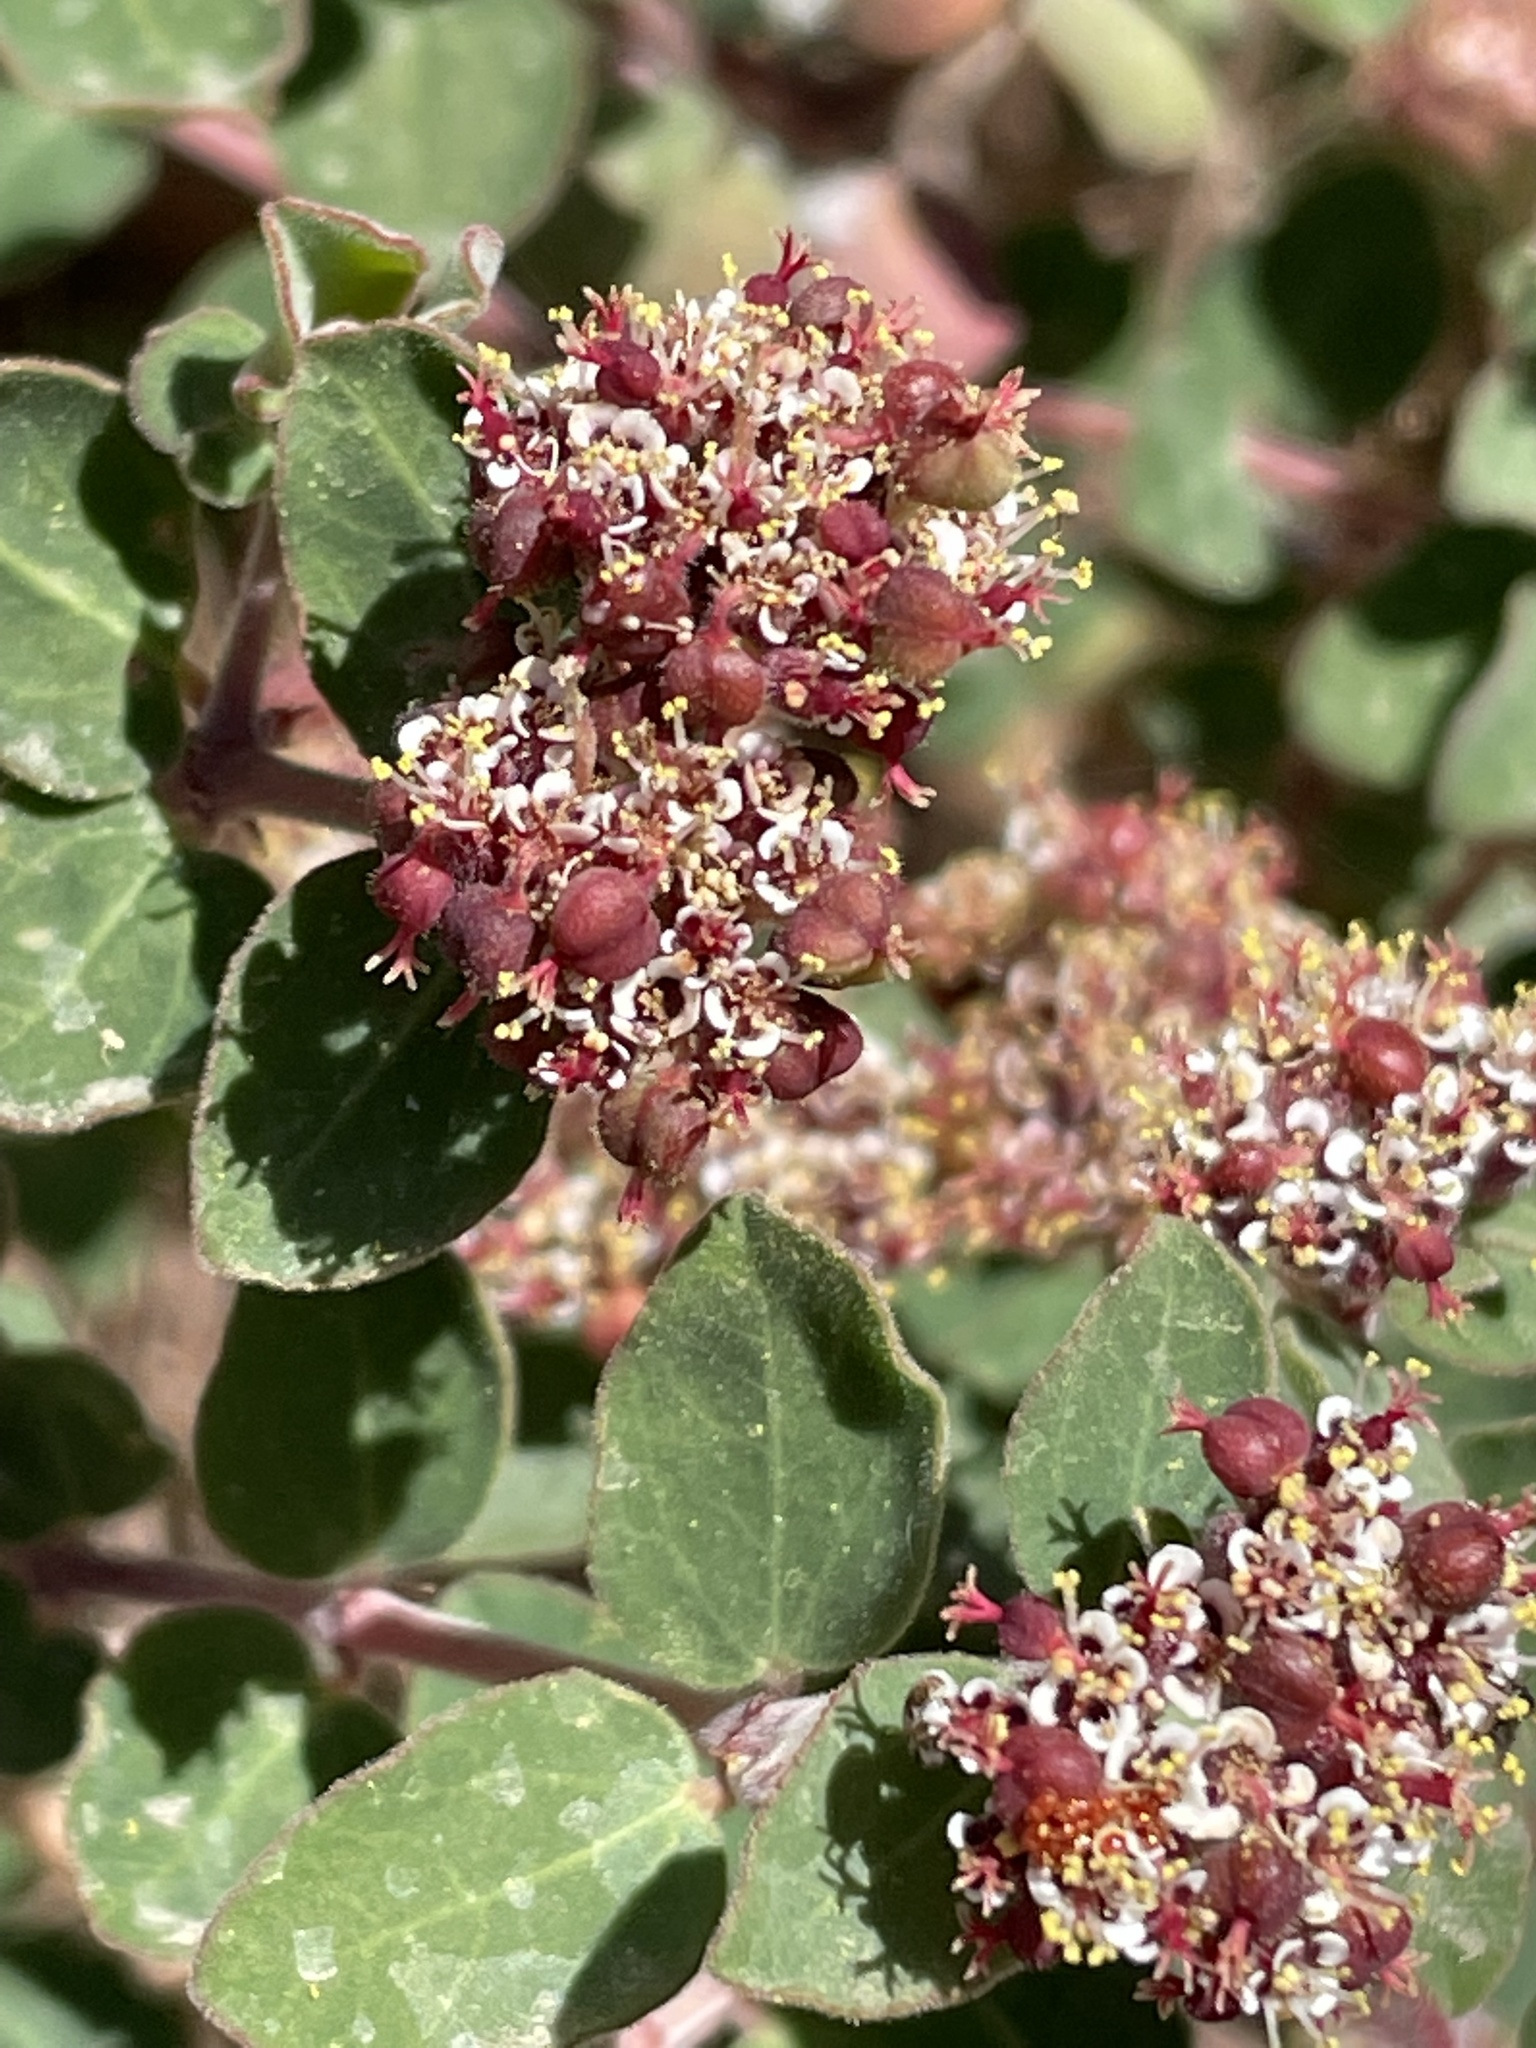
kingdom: Plantae
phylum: Tracheophyta
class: Magnoliopsida
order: Malpighiales
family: Euphorbiaceae
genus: Euphorbia
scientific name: Euphorbia tomentulosa
